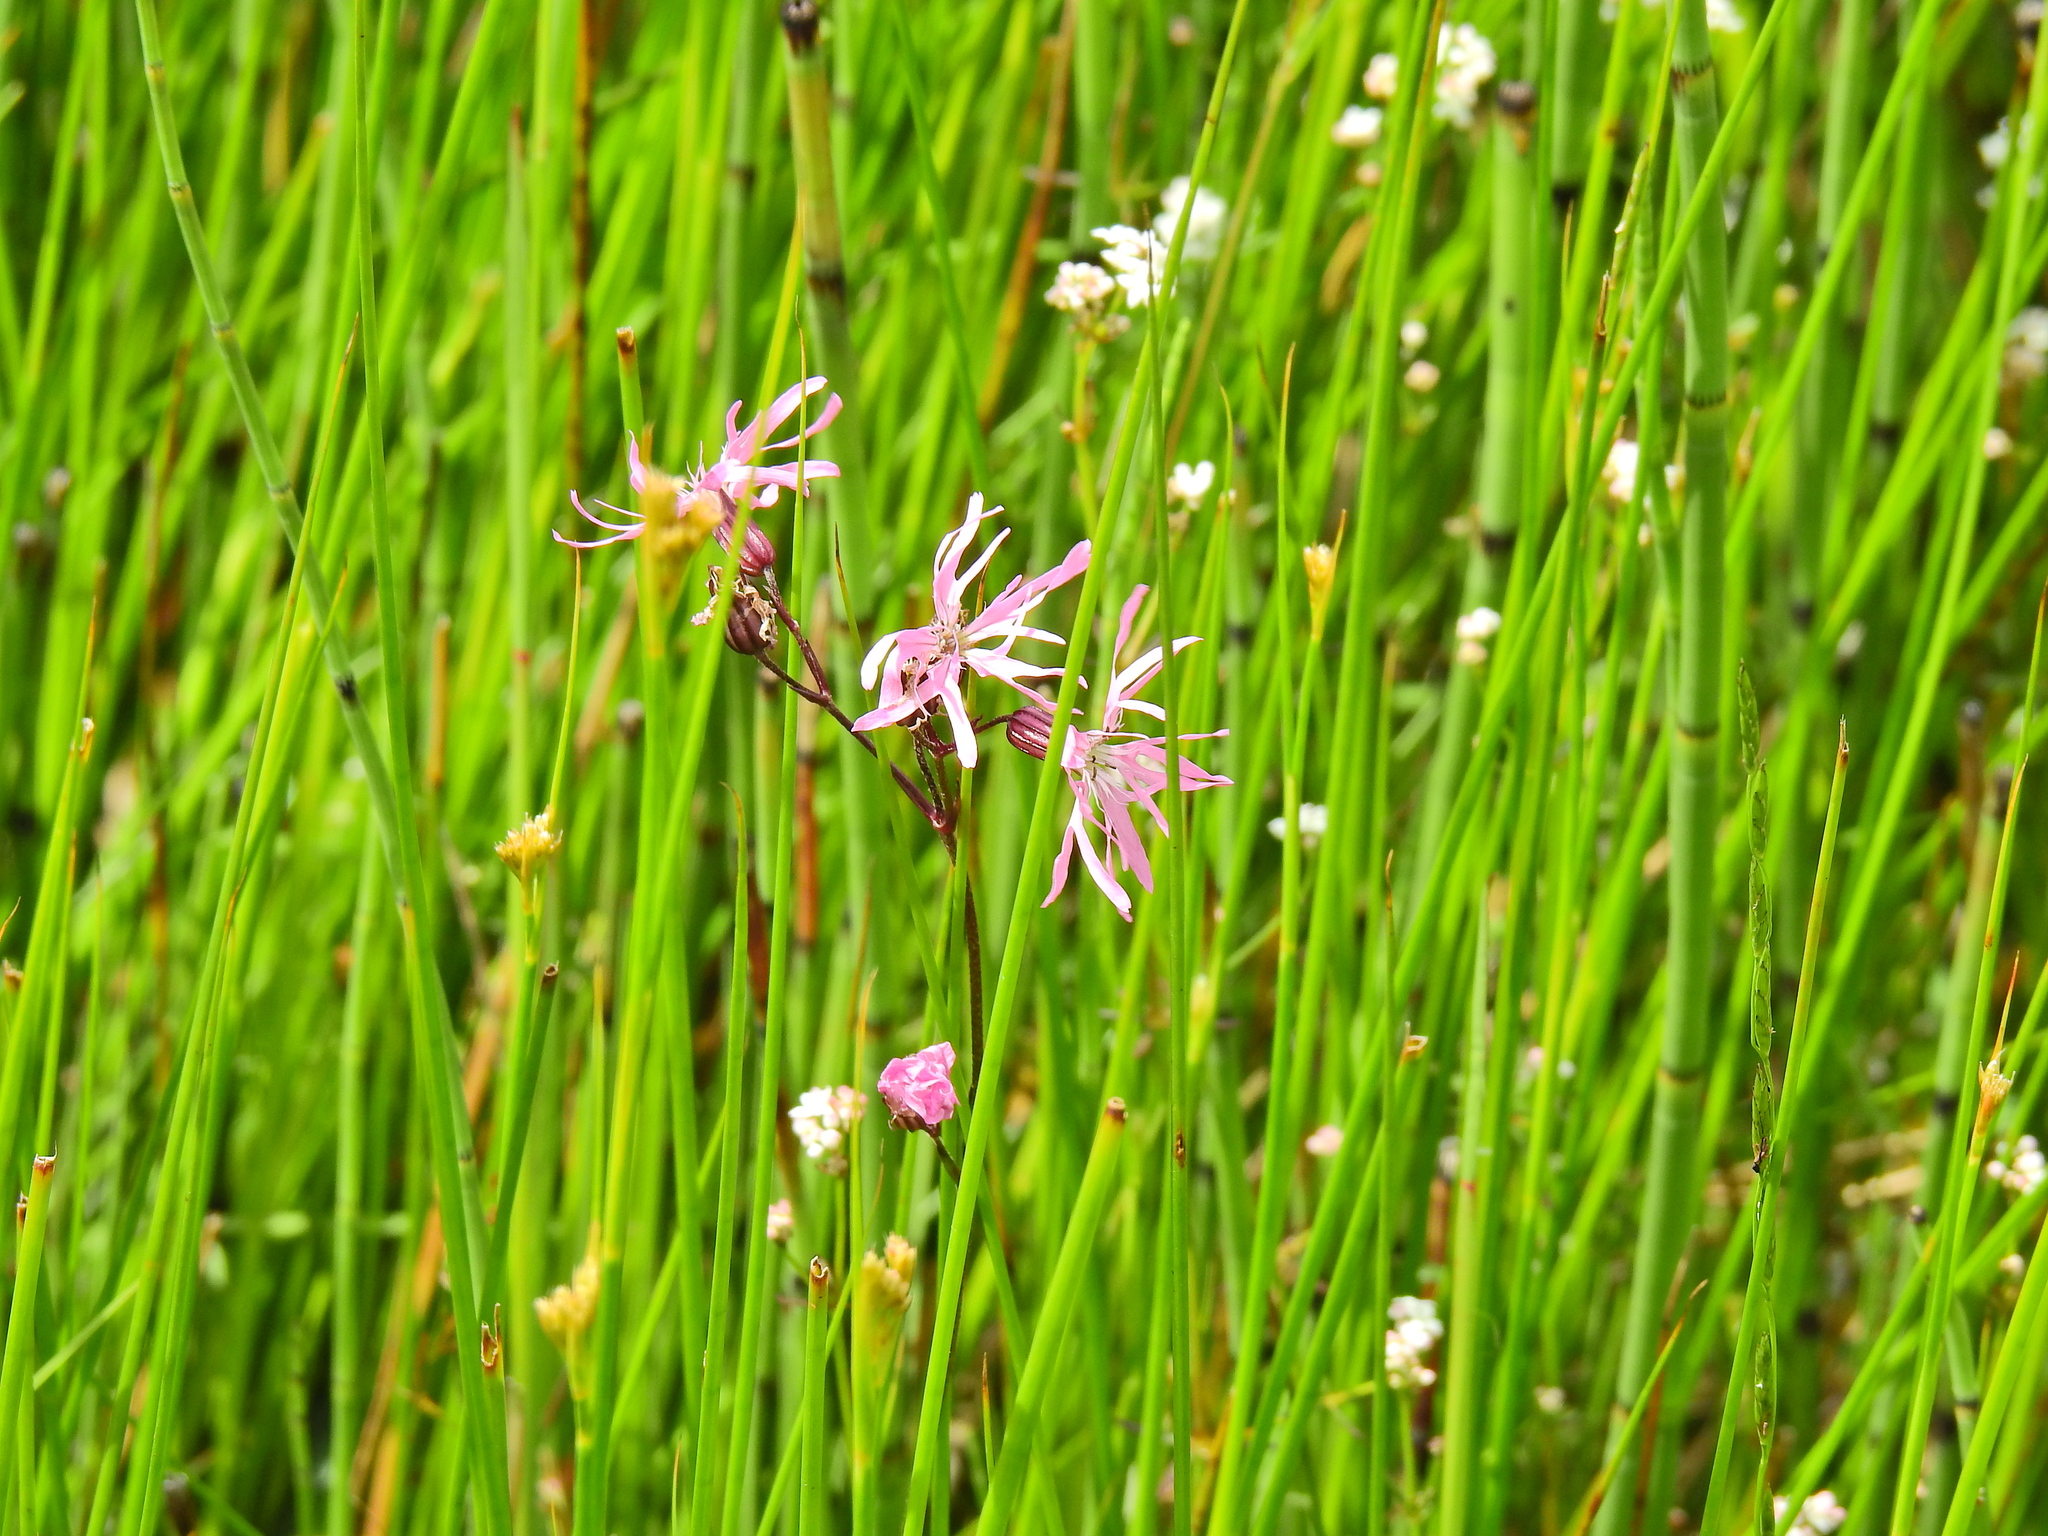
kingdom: Plantae
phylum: Tracheophyta
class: Magnoliopsida
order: Caryophyllales
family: Caryophyllaceae
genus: Silene
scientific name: Silene flos-cuculi
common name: Ragged-robin
